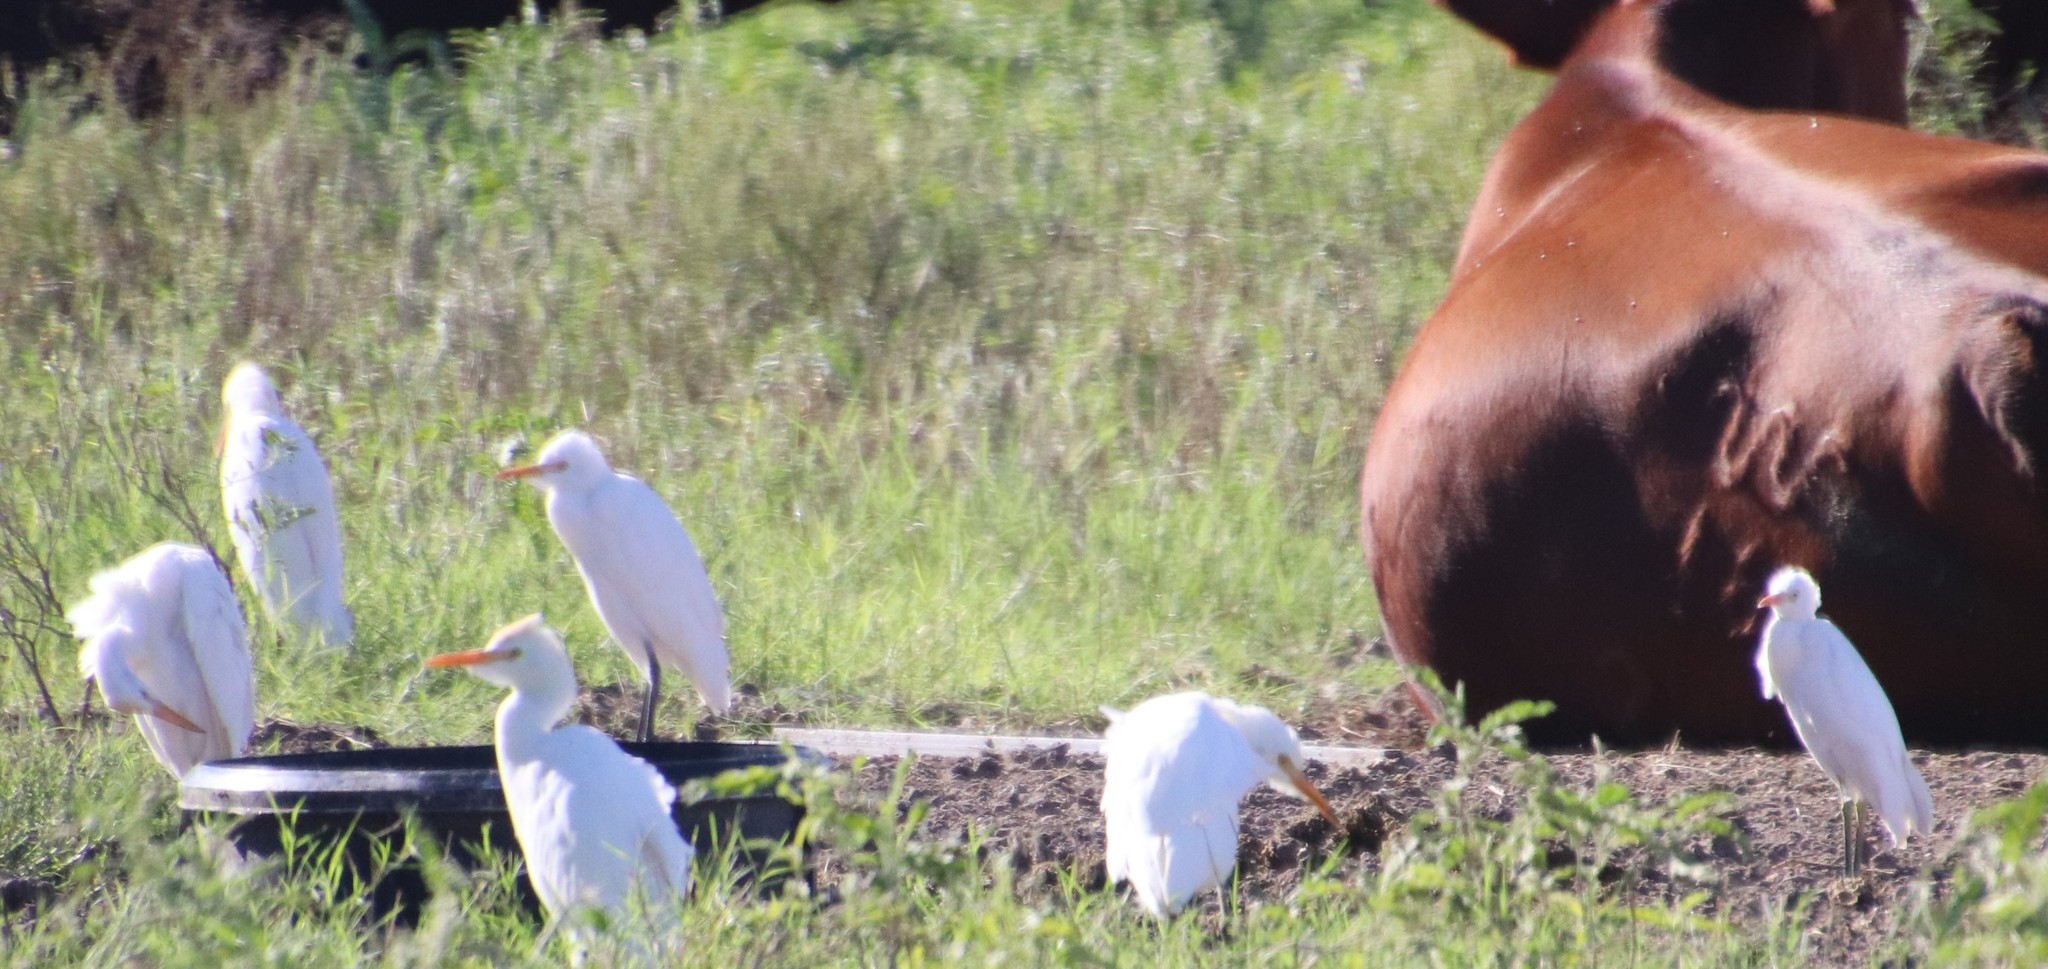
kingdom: Animalia
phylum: Chordata
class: Aves
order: Pelecaniformes
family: Ardeidae
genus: Bubulcus
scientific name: Bubulcus ibis
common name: Cattle egret
